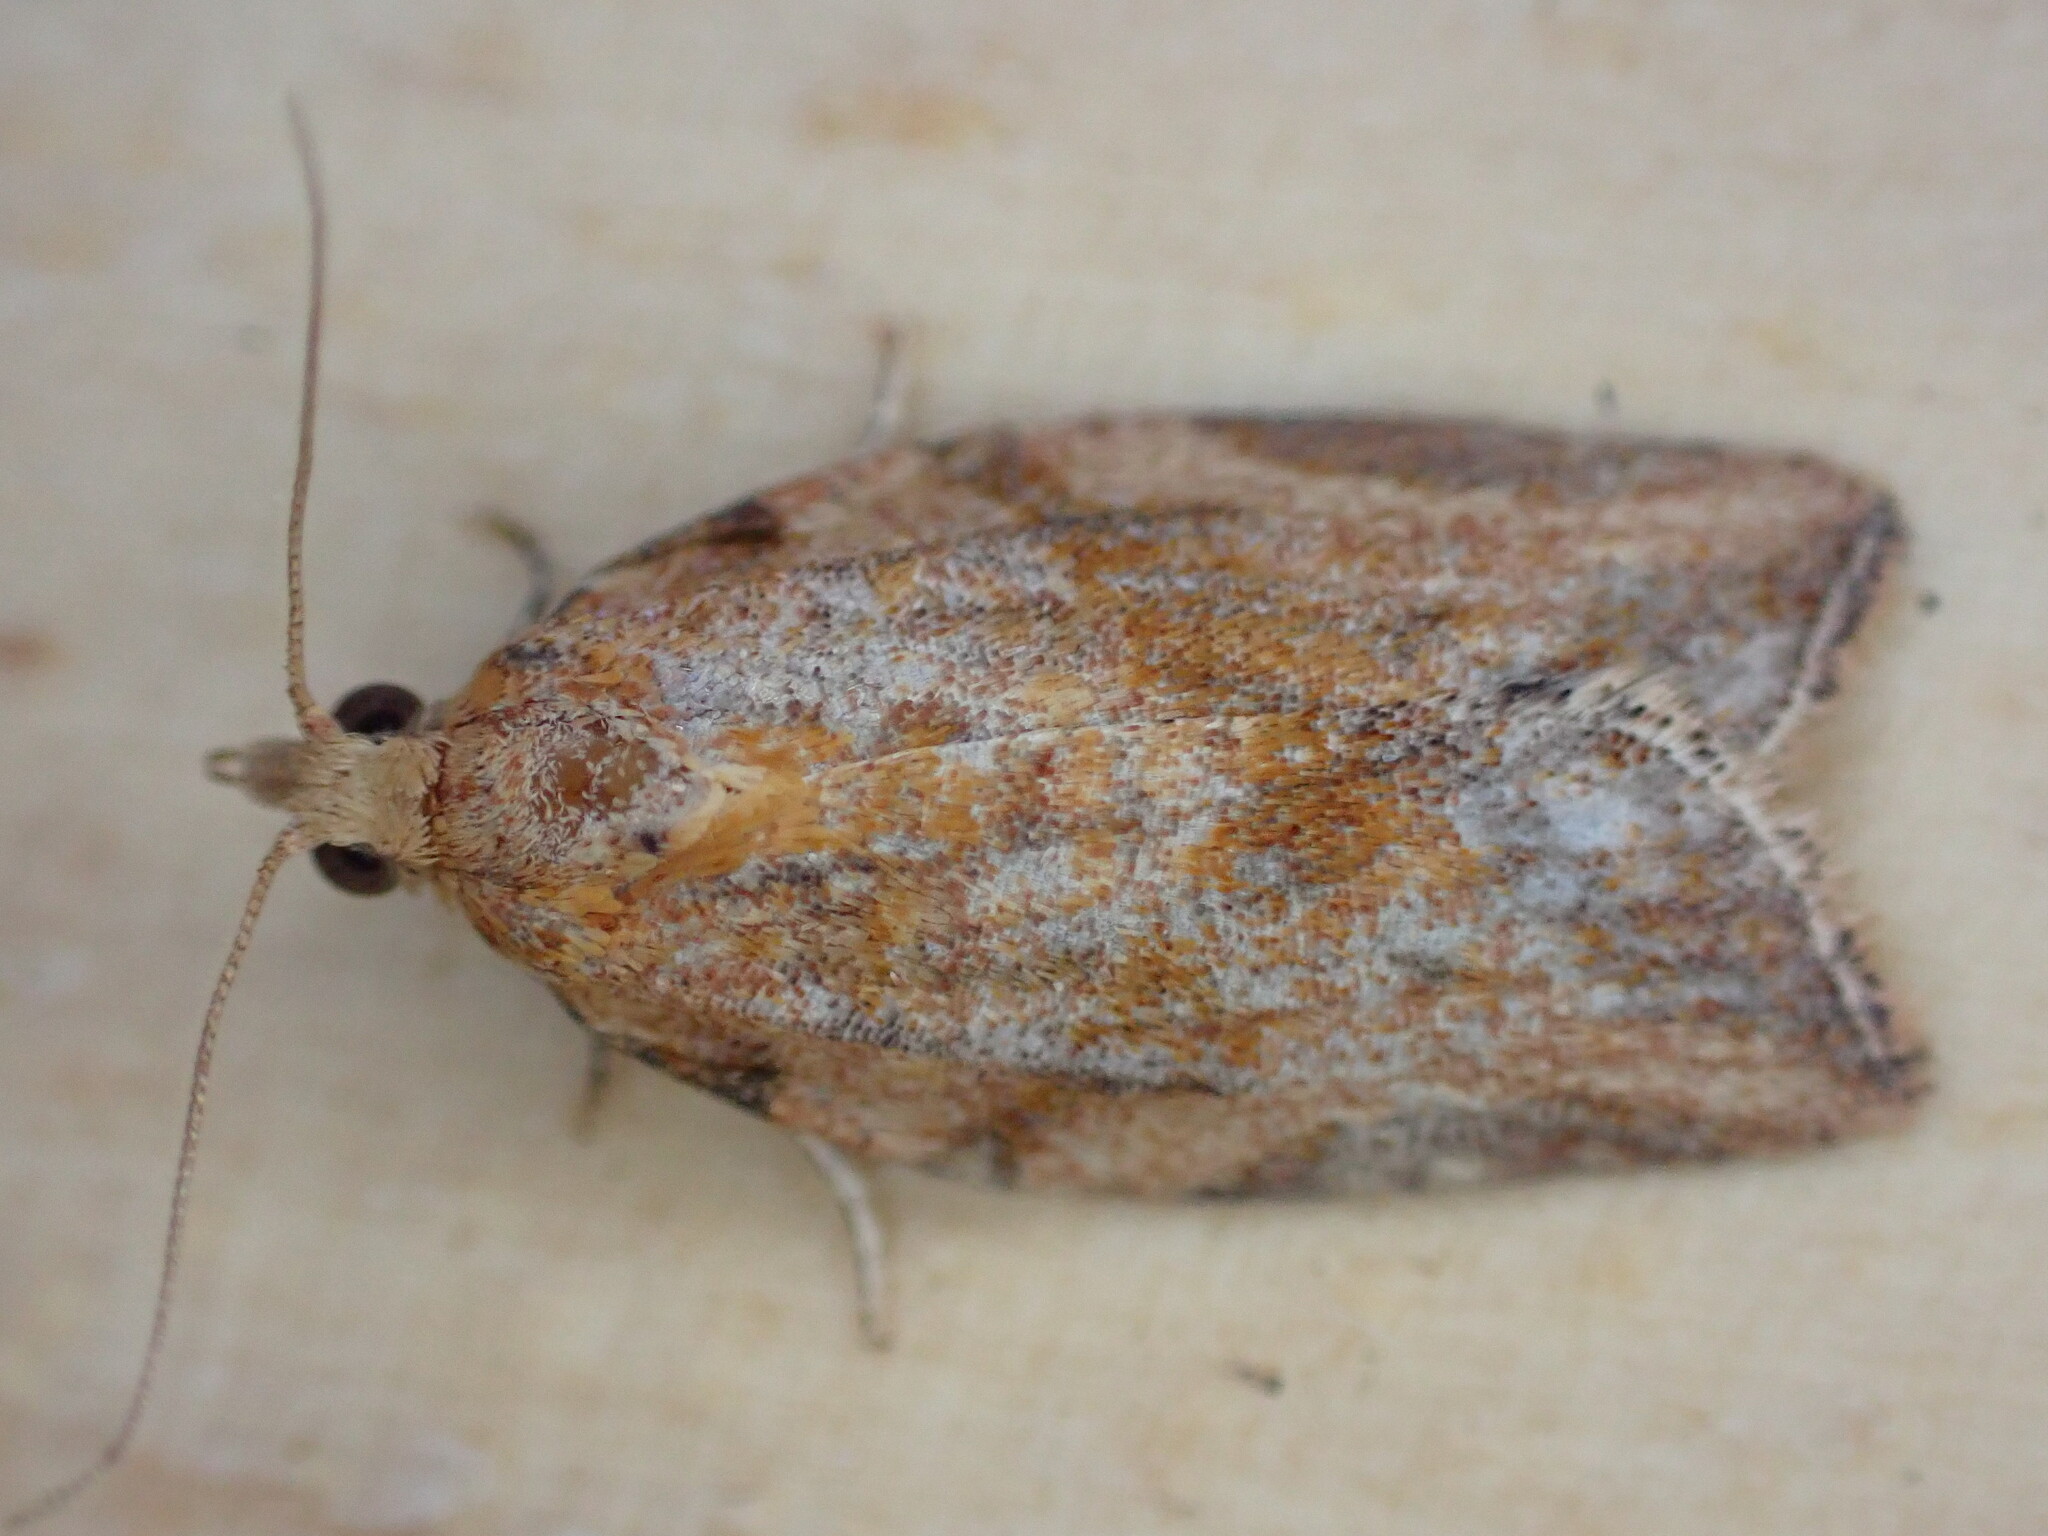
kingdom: Animalia
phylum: Arthropoda
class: Insecta
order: Lepidoptera
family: Tortricidae
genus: Epiphyas
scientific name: Epiphyas postvittana
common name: Light brown apple moth
